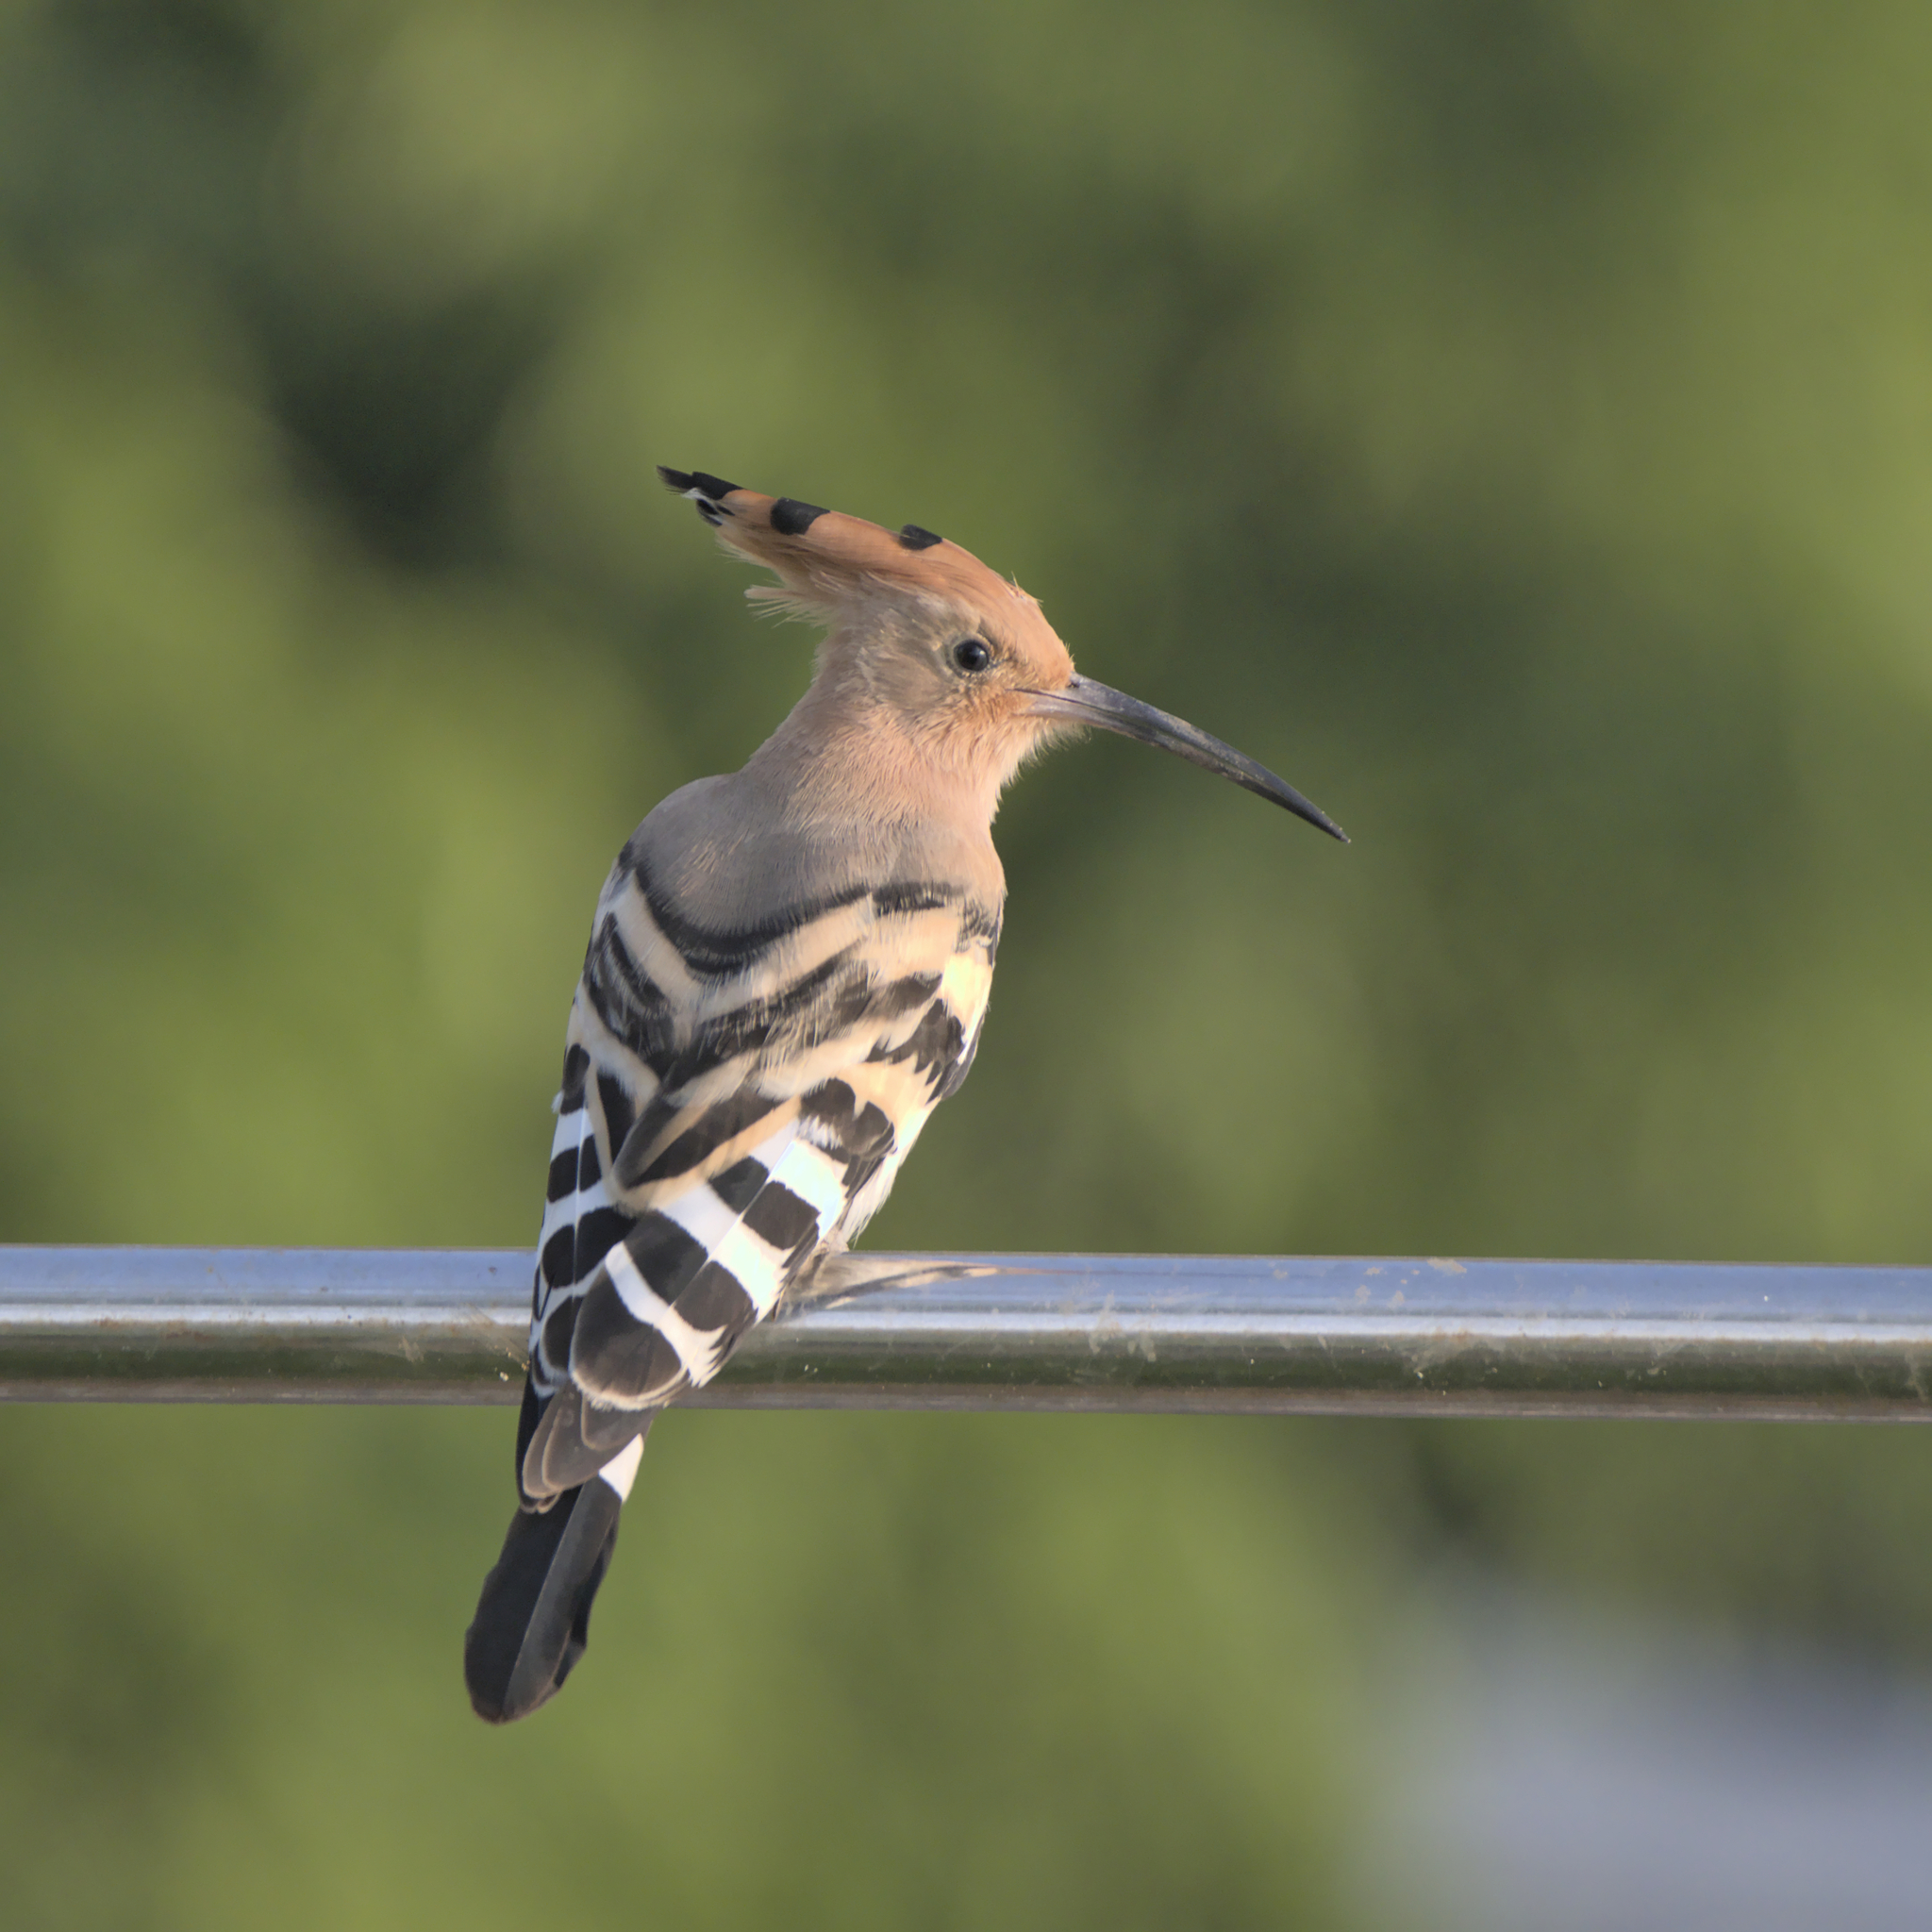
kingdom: Animalia
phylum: Chordata
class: Aves
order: Bucerotiformes
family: Upupidae
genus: Upupa
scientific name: Upupa epops
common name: Eurasian hoopoe
